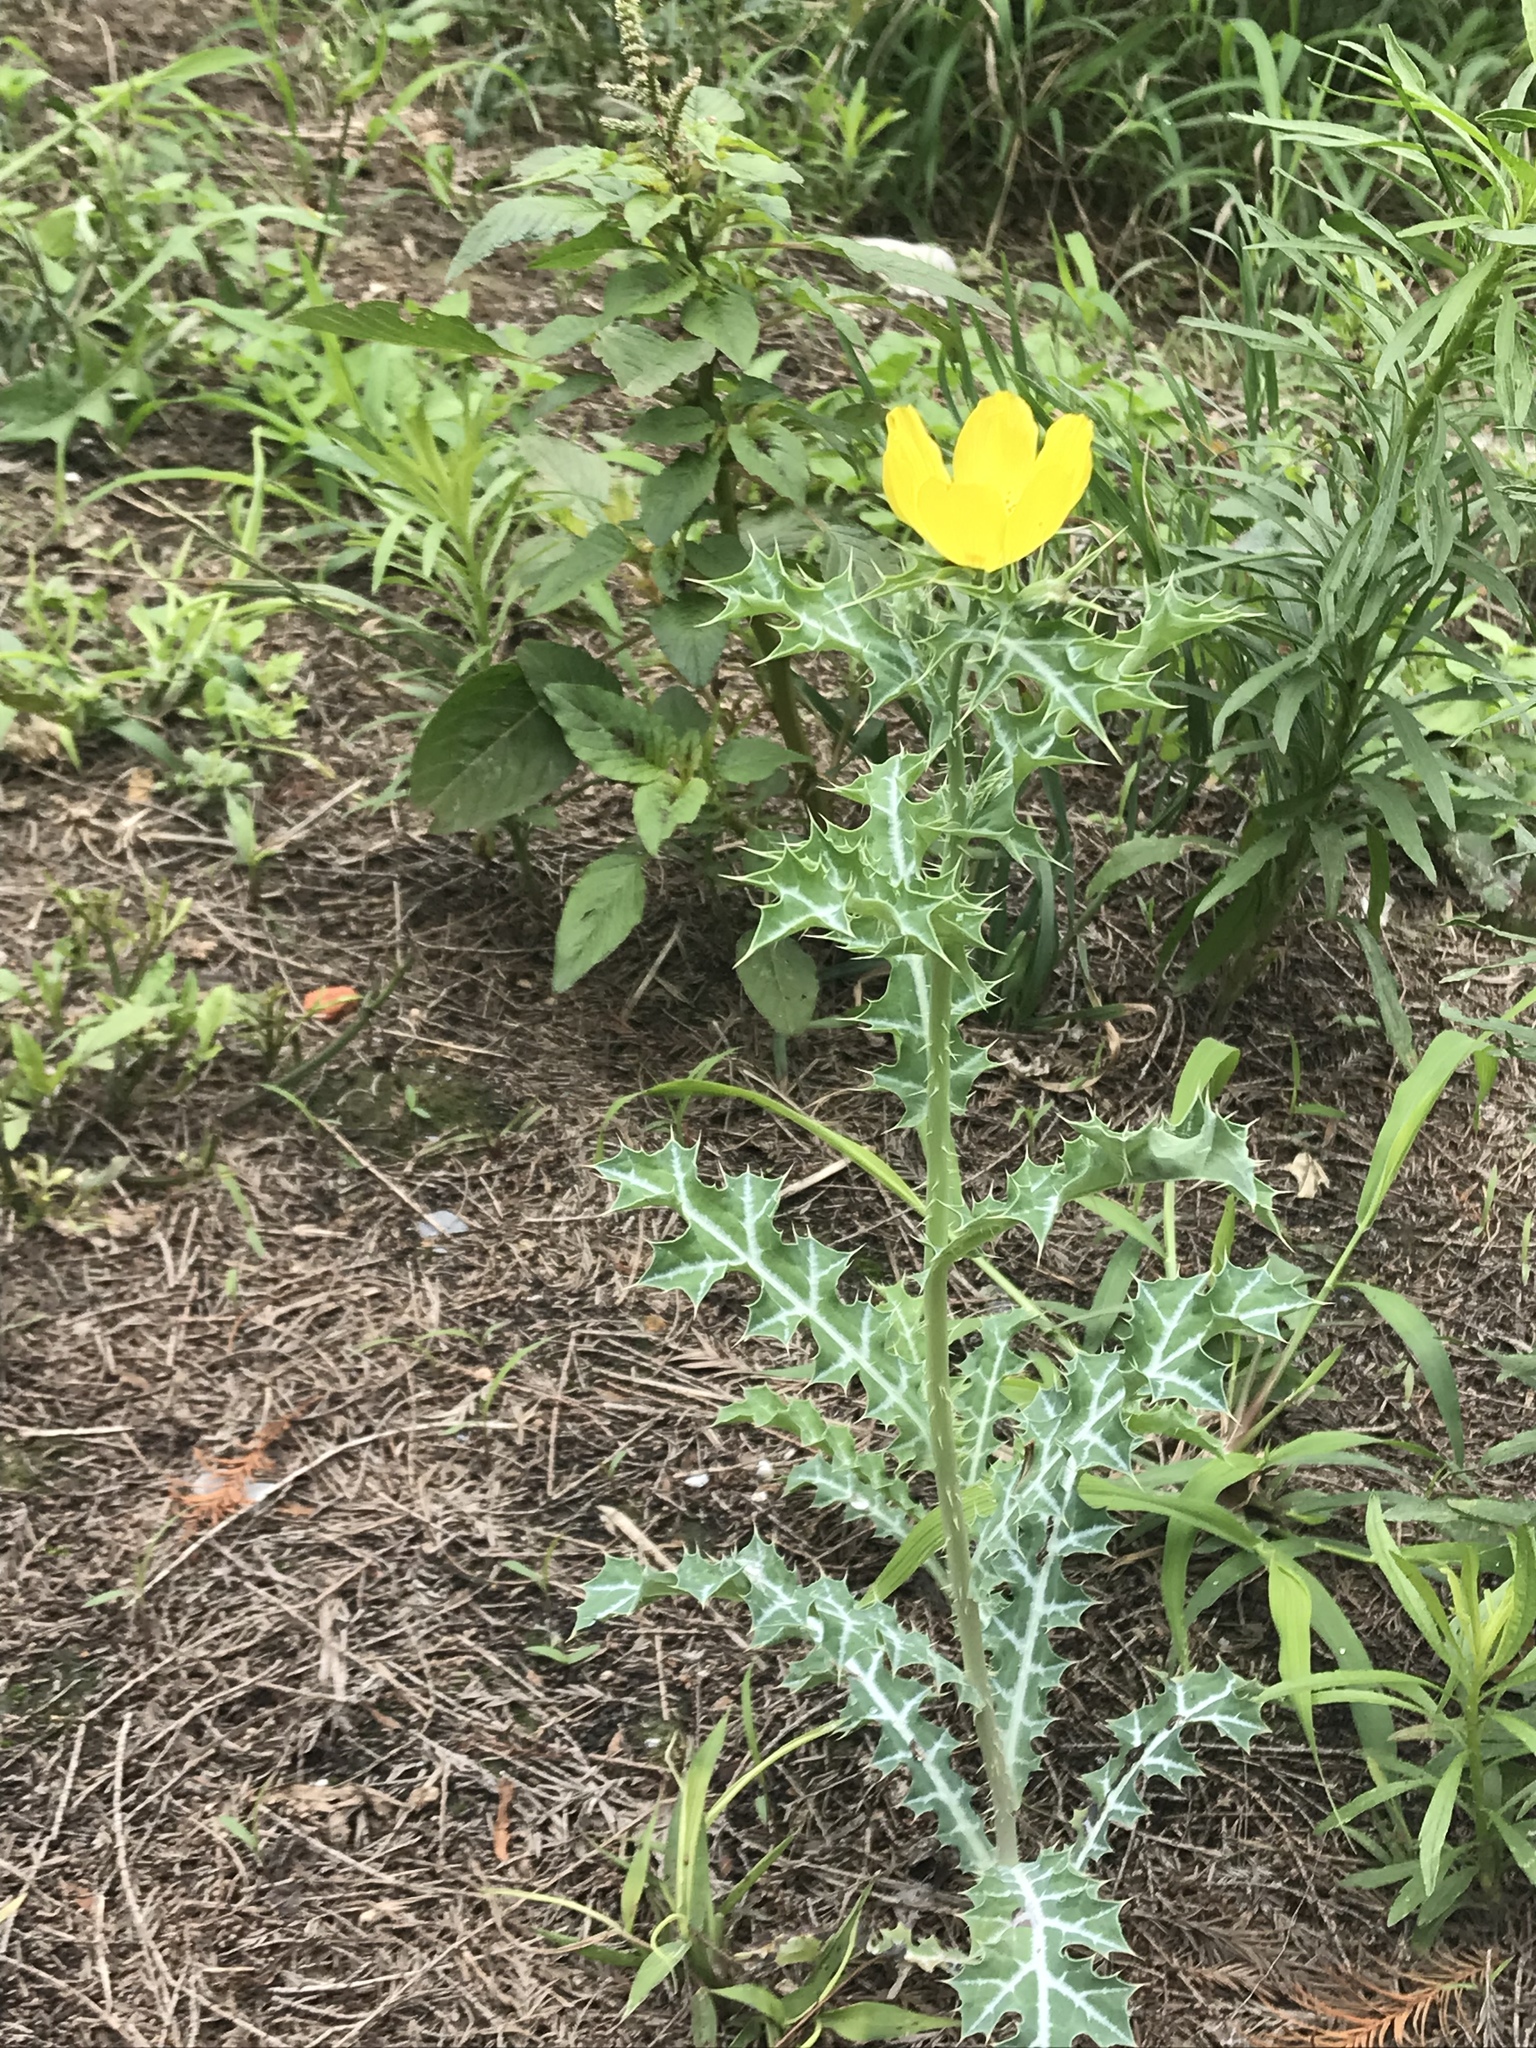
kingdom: Plantae
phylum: Tracheophyta
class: Magnoliopsida
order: Ranunculales
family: Papaveraceae
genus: Argemone
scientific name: Argemone mexicana
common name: Mexican poppy
